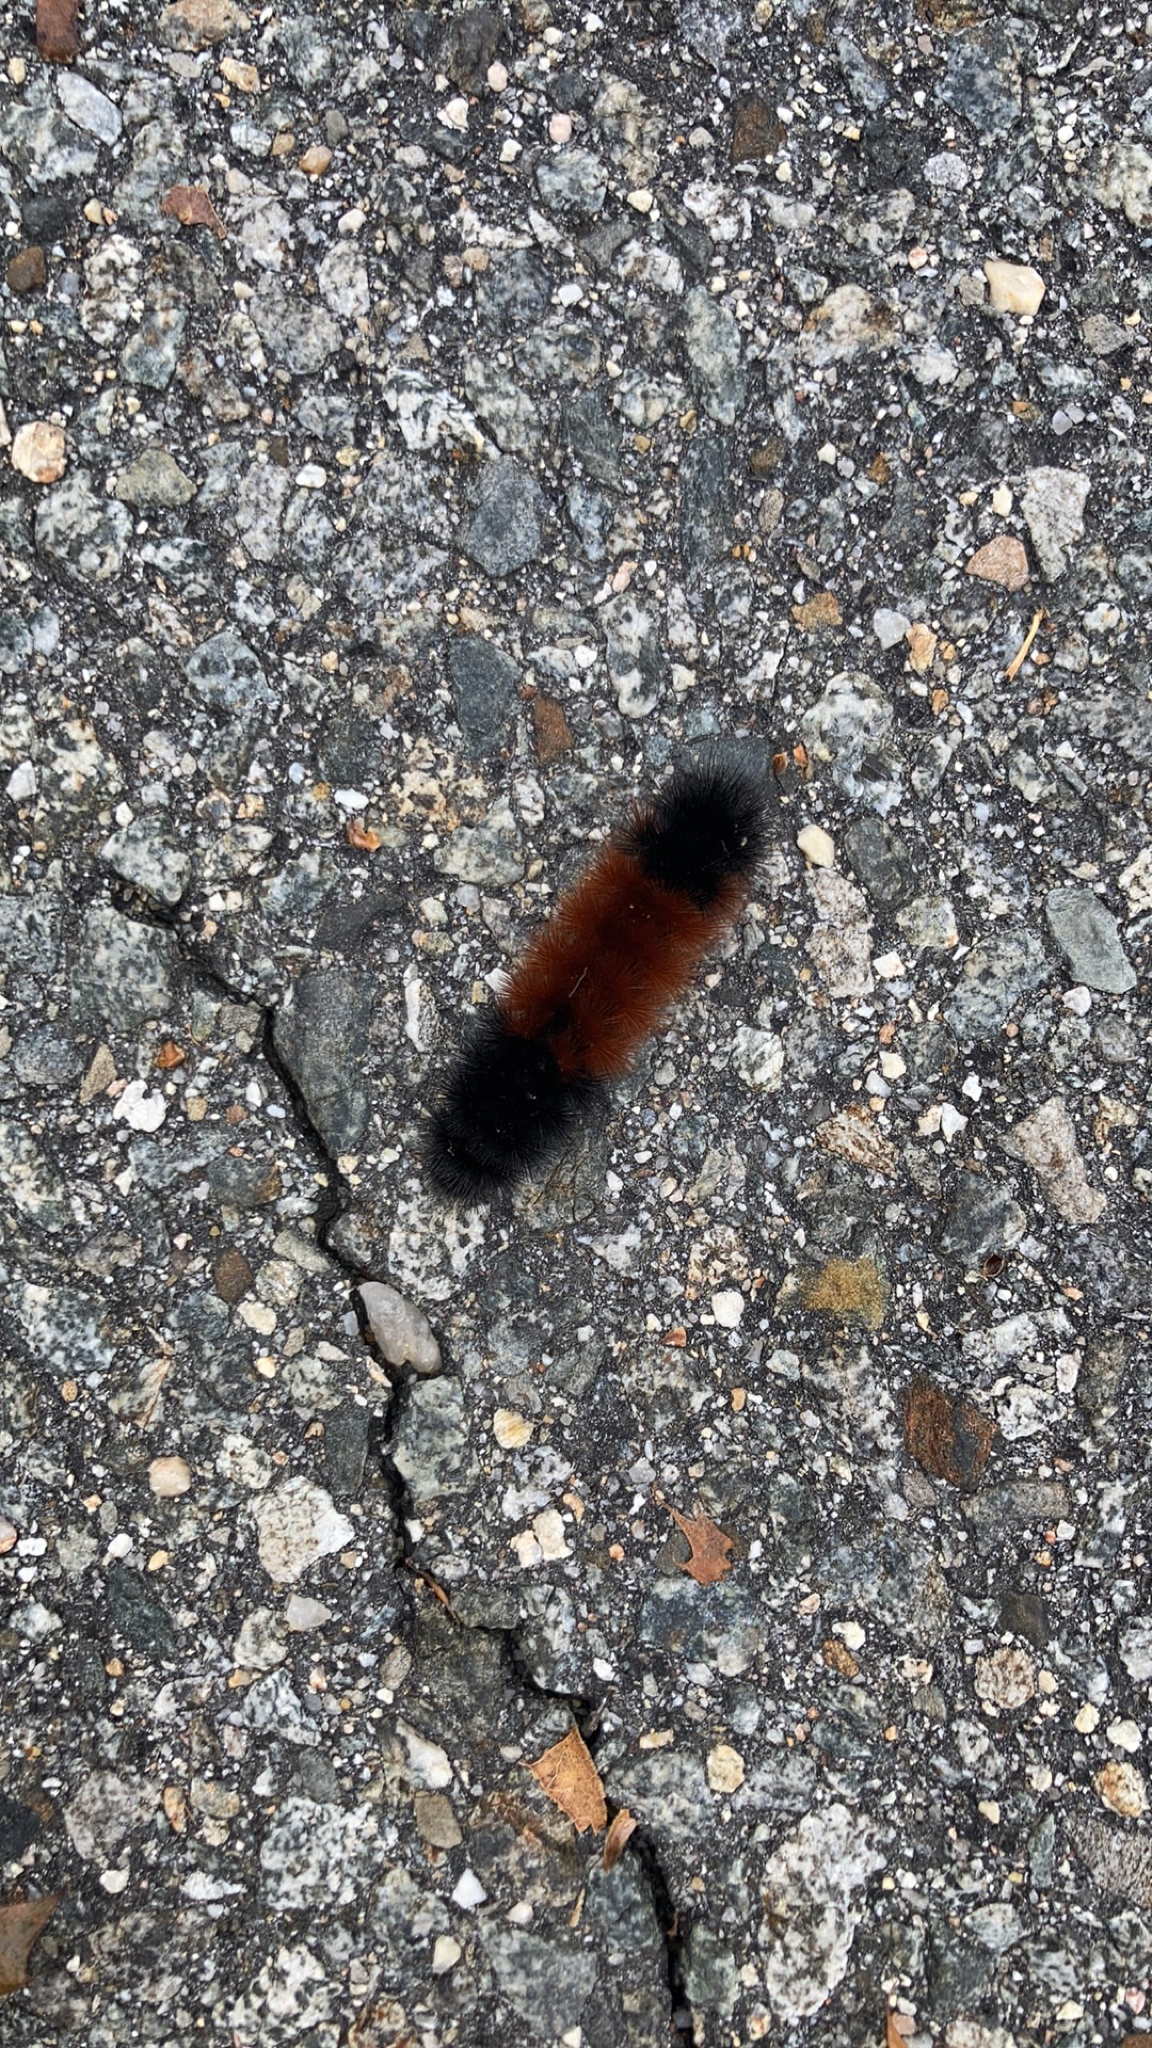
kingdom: Animalia
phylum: Arthropoda
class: Insecta
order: Lepidoptera
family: Erebidae
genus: Pyrrharctia
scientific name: Pyrrharctia isabella
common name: Isabella tiger moth
